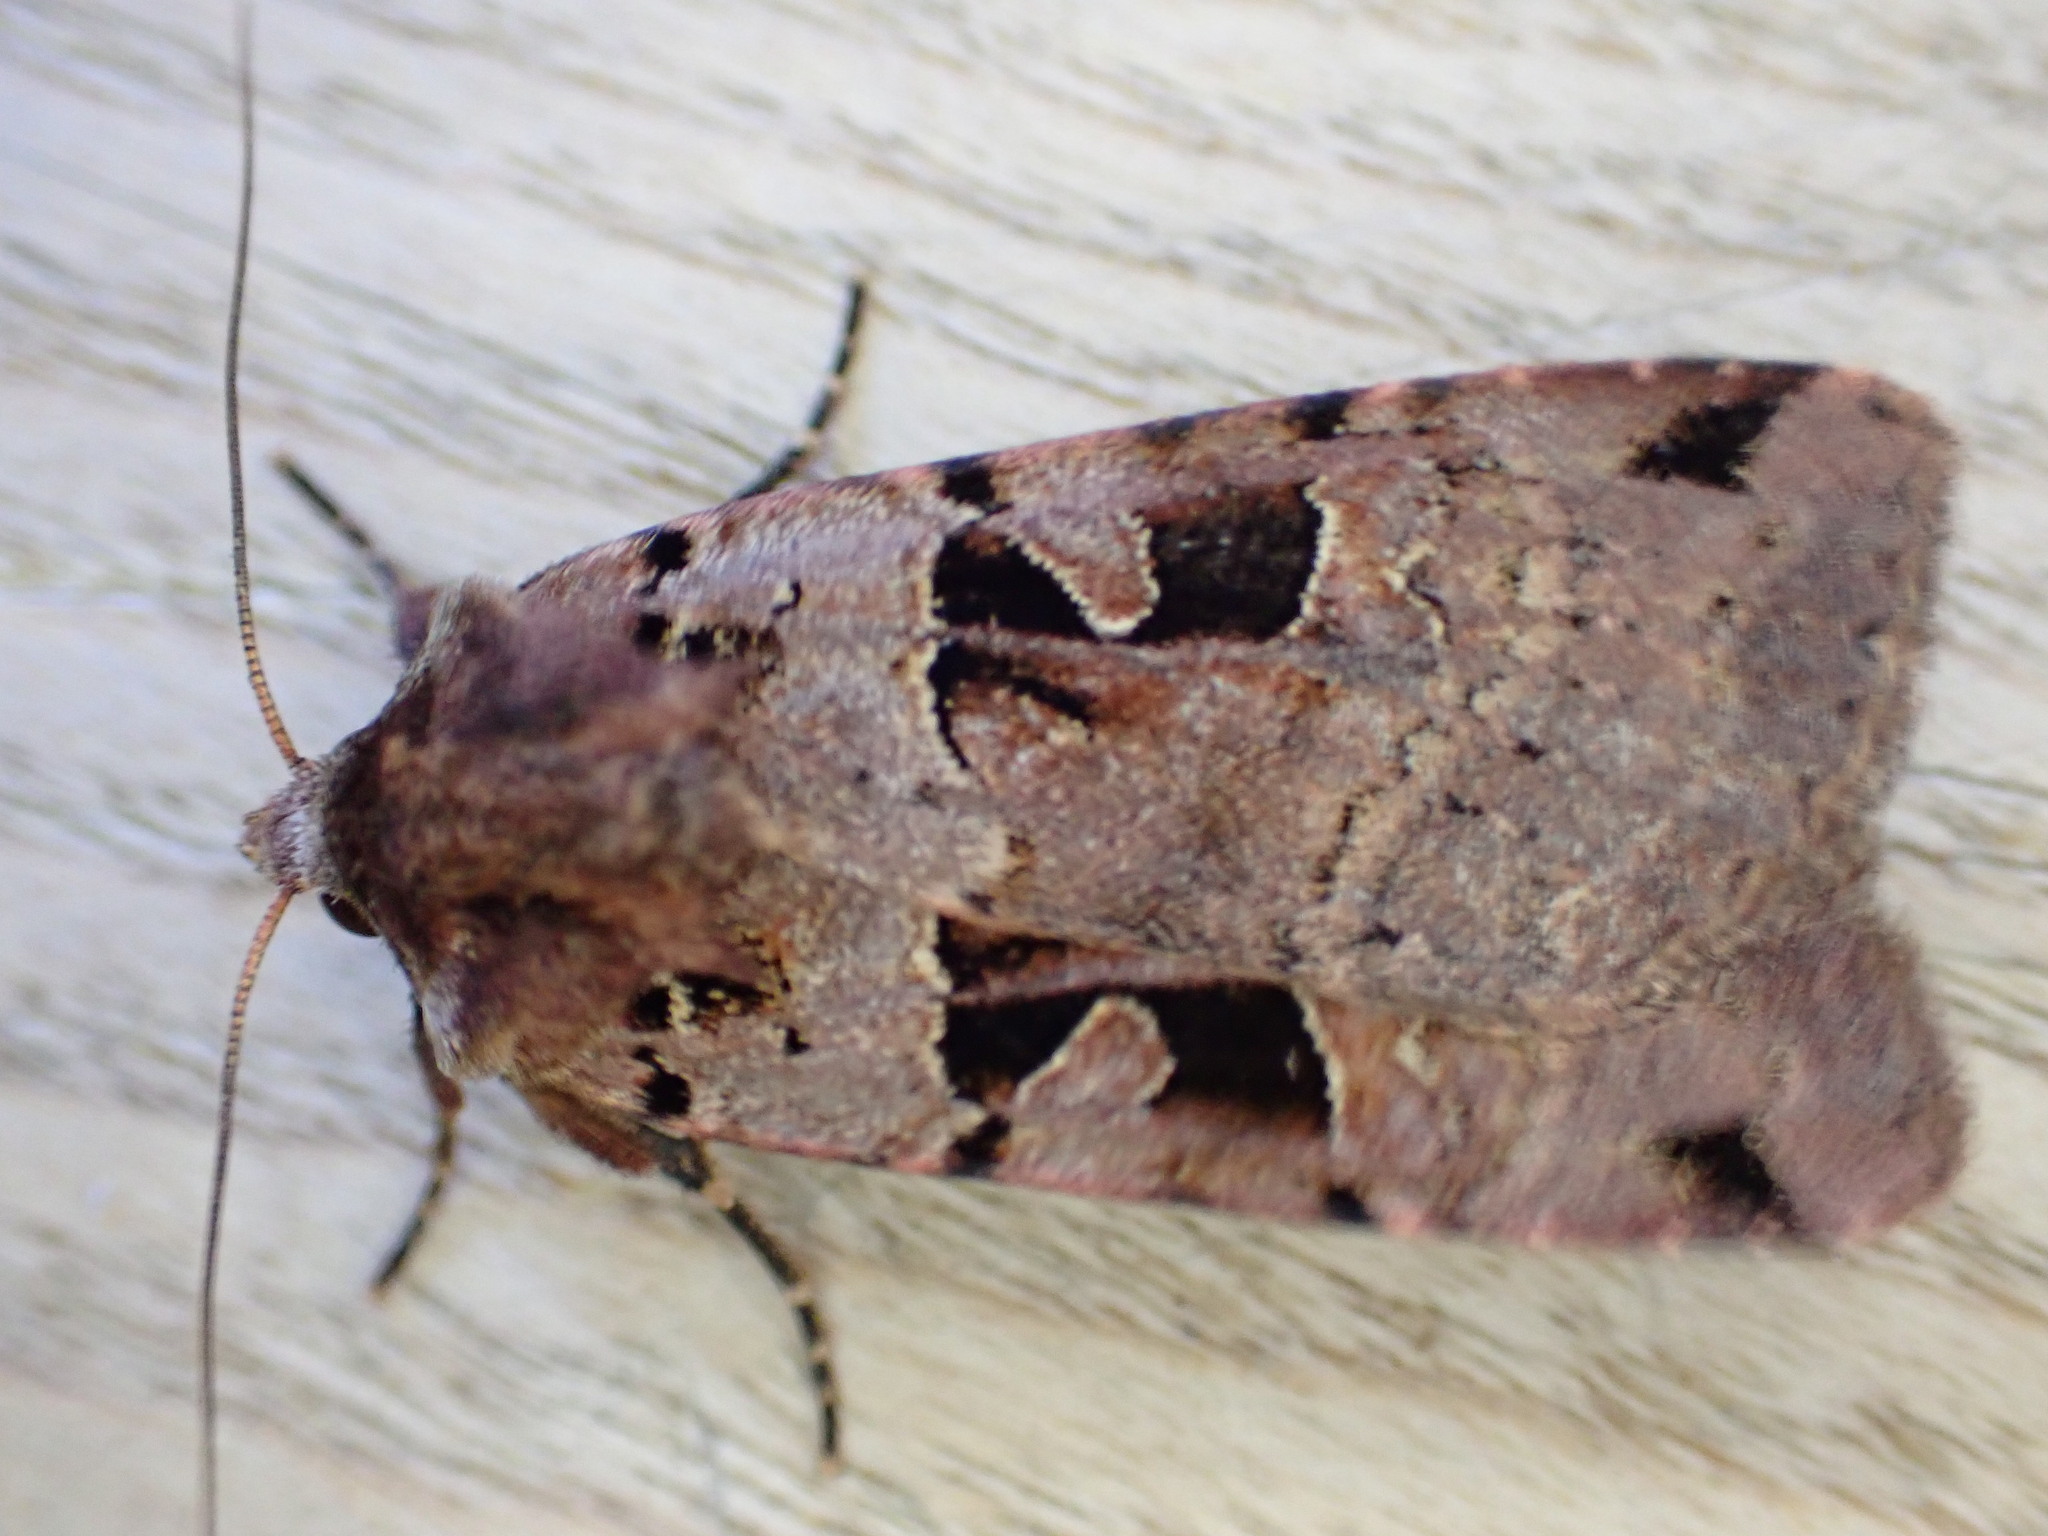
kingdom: Animalia
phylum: Arthropoda
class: Insecta
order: Lepidoptera
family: Noctuidae
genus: Xestia
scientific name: Xestia triangulum
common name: Double square-spot
